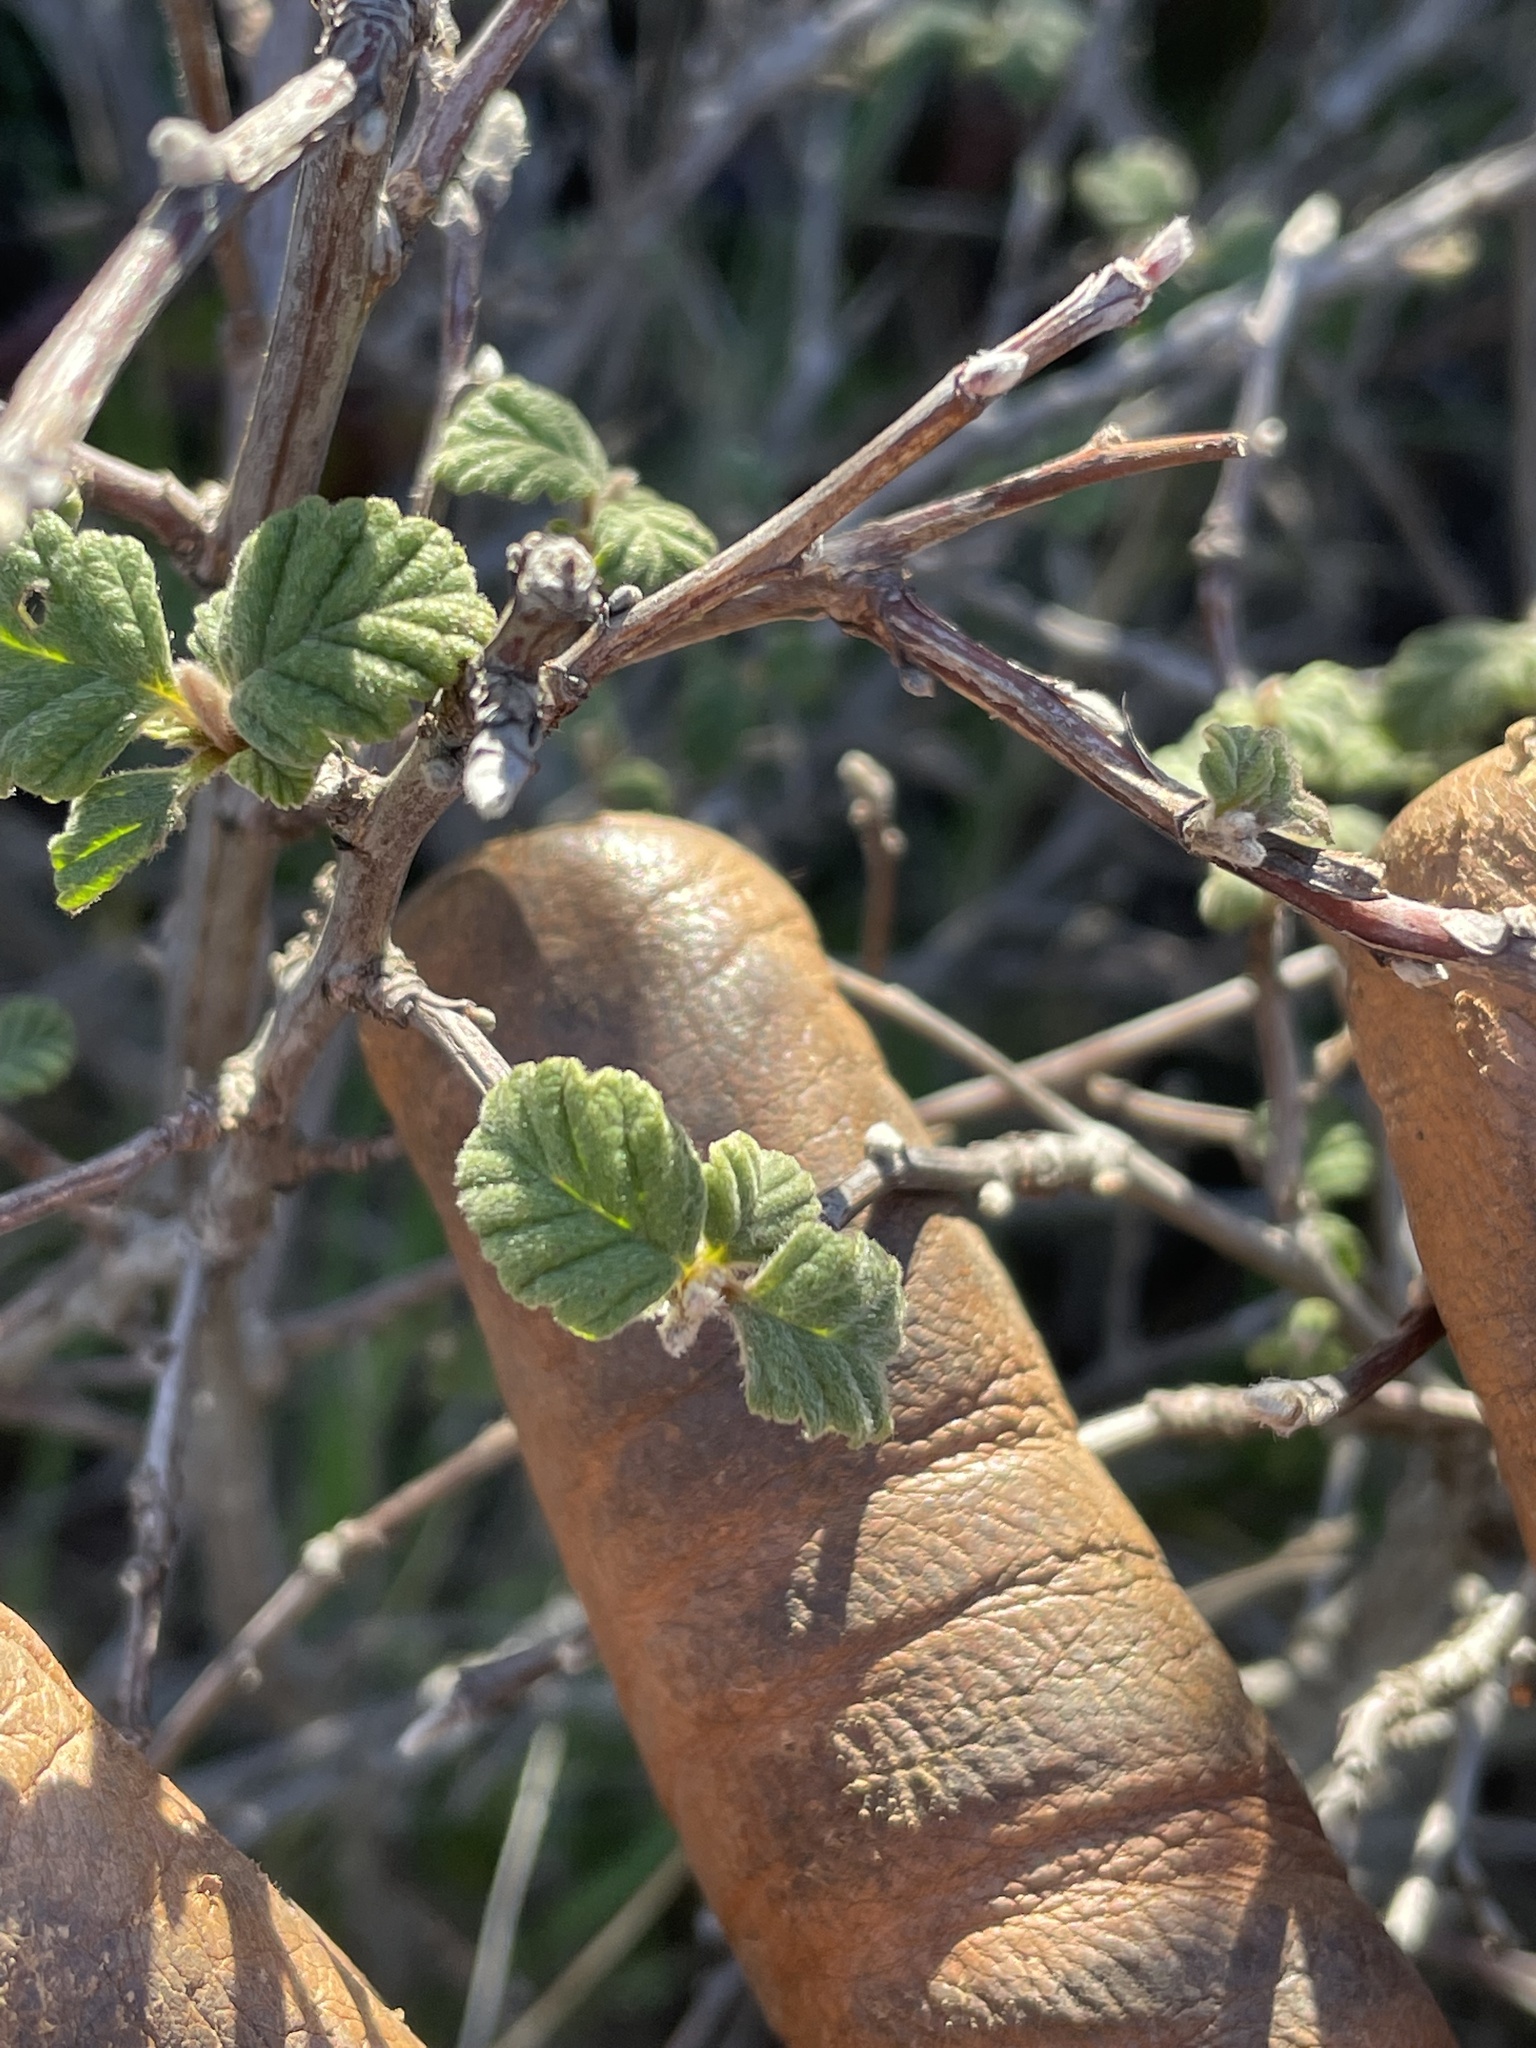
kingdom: Plantae
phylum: Tracheophyta
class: Magnoliopsida
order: Rosales
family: Rosaceae
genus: Holodiscus
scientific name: Holodiscus discolor
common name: Oceanspray
